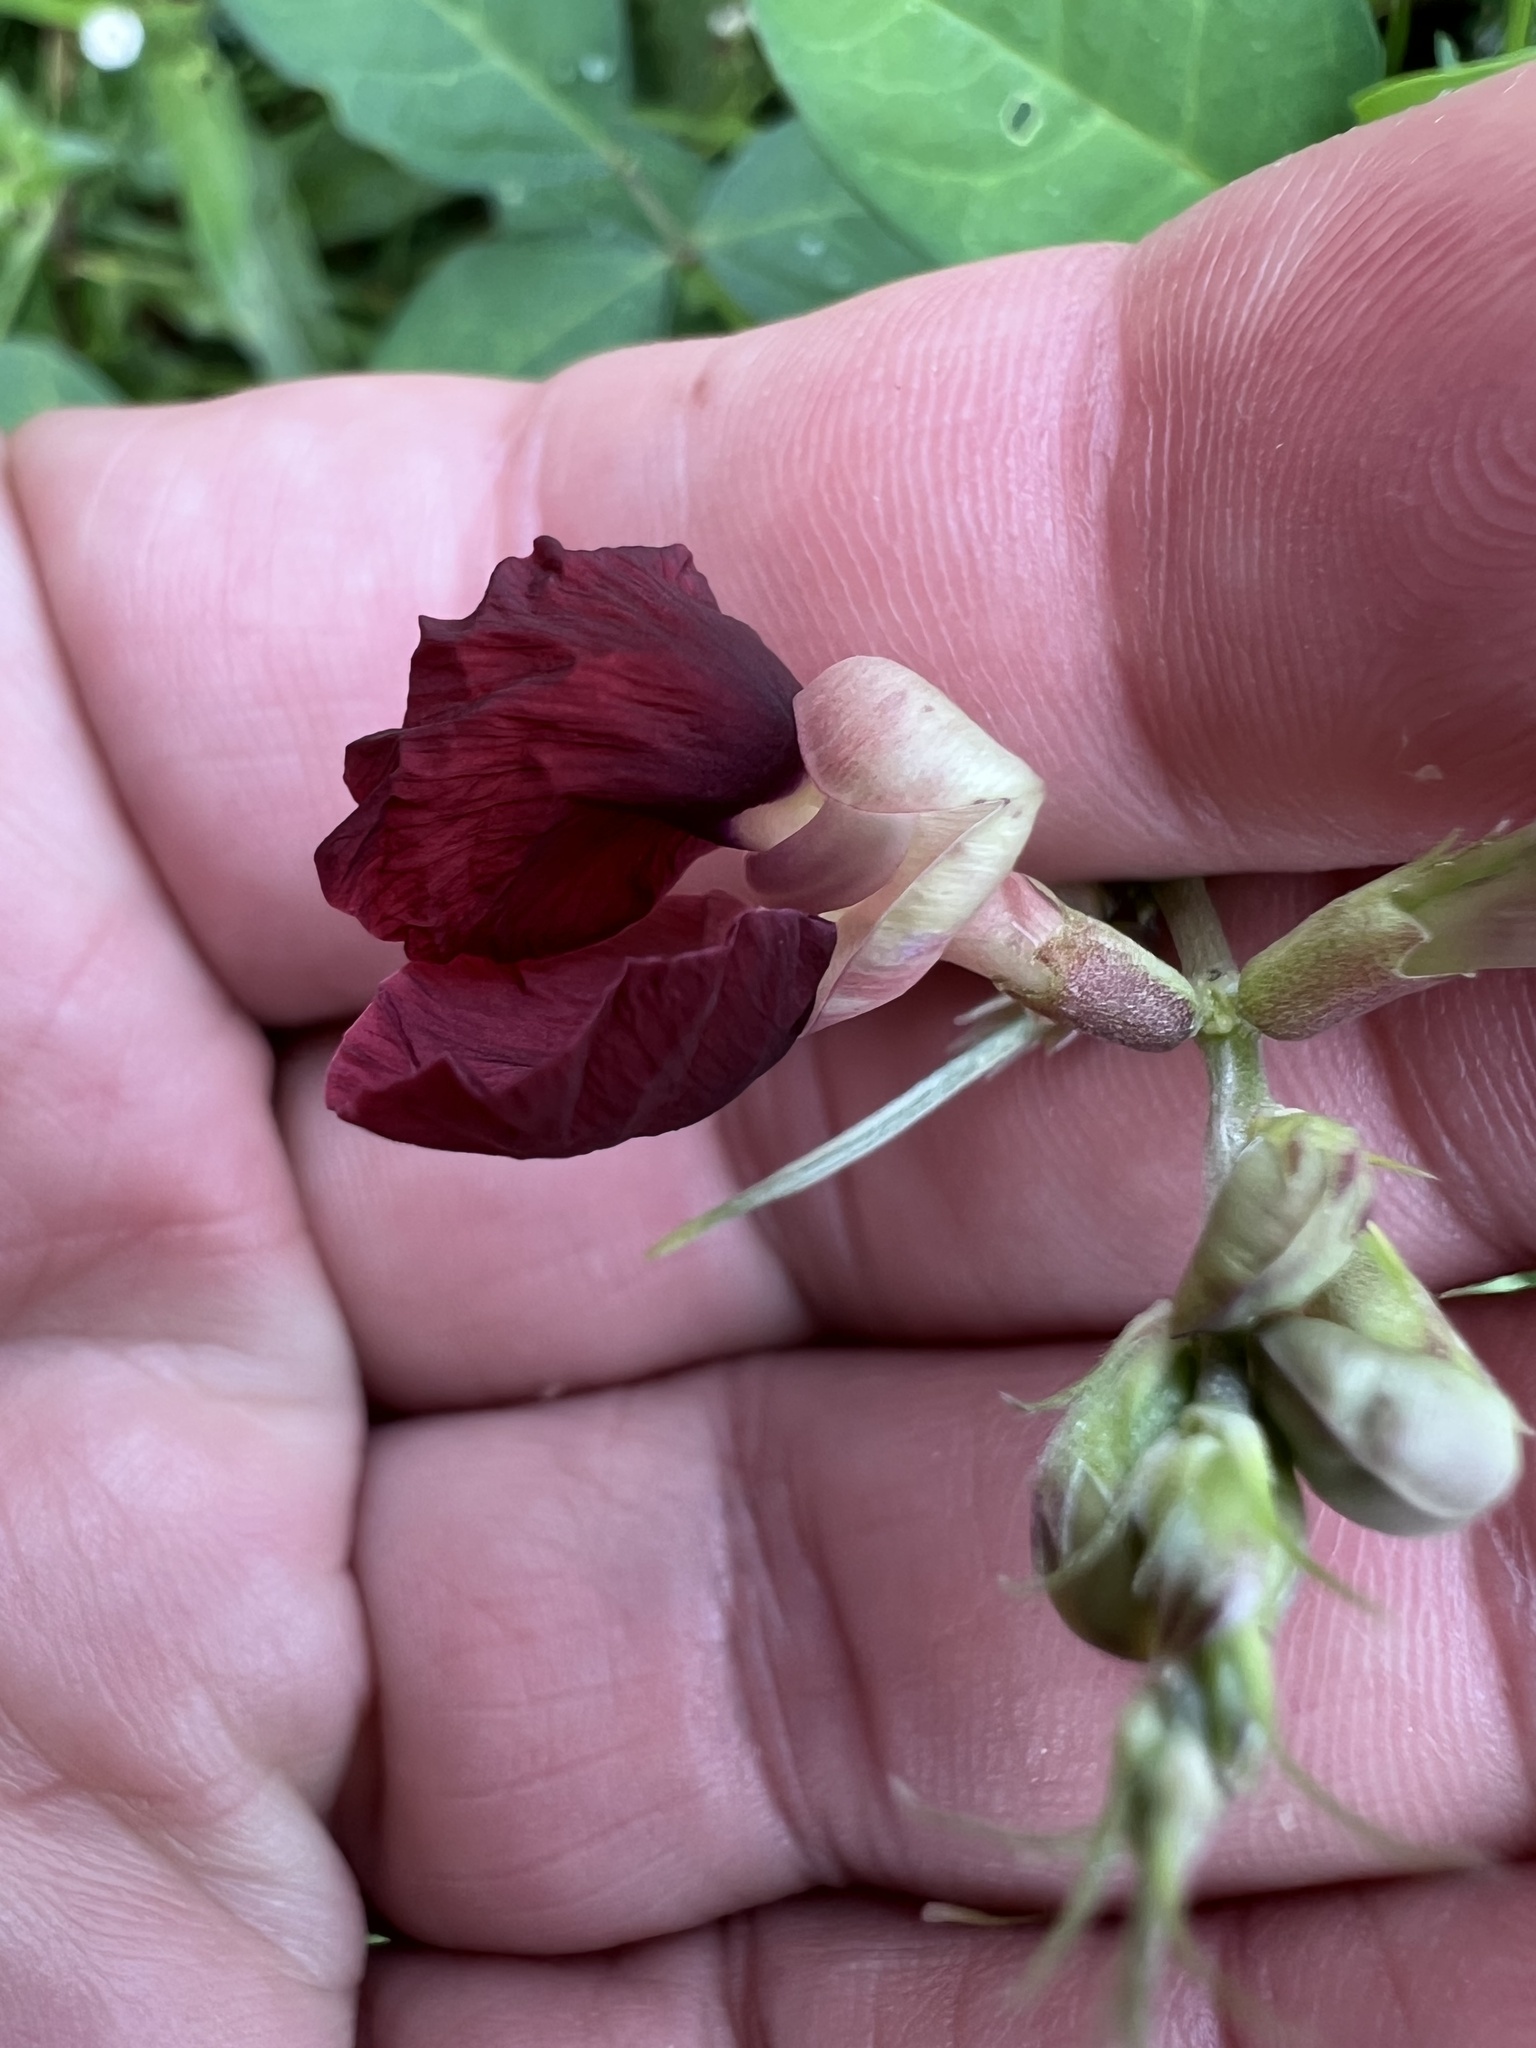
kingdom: Plantae
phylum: Tracheophyta
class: Magnoliopsida
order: Fabales
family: Fabaceae
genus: Macroptilium
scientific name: Macroptilium atropurpureum
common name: Purple bushbean
